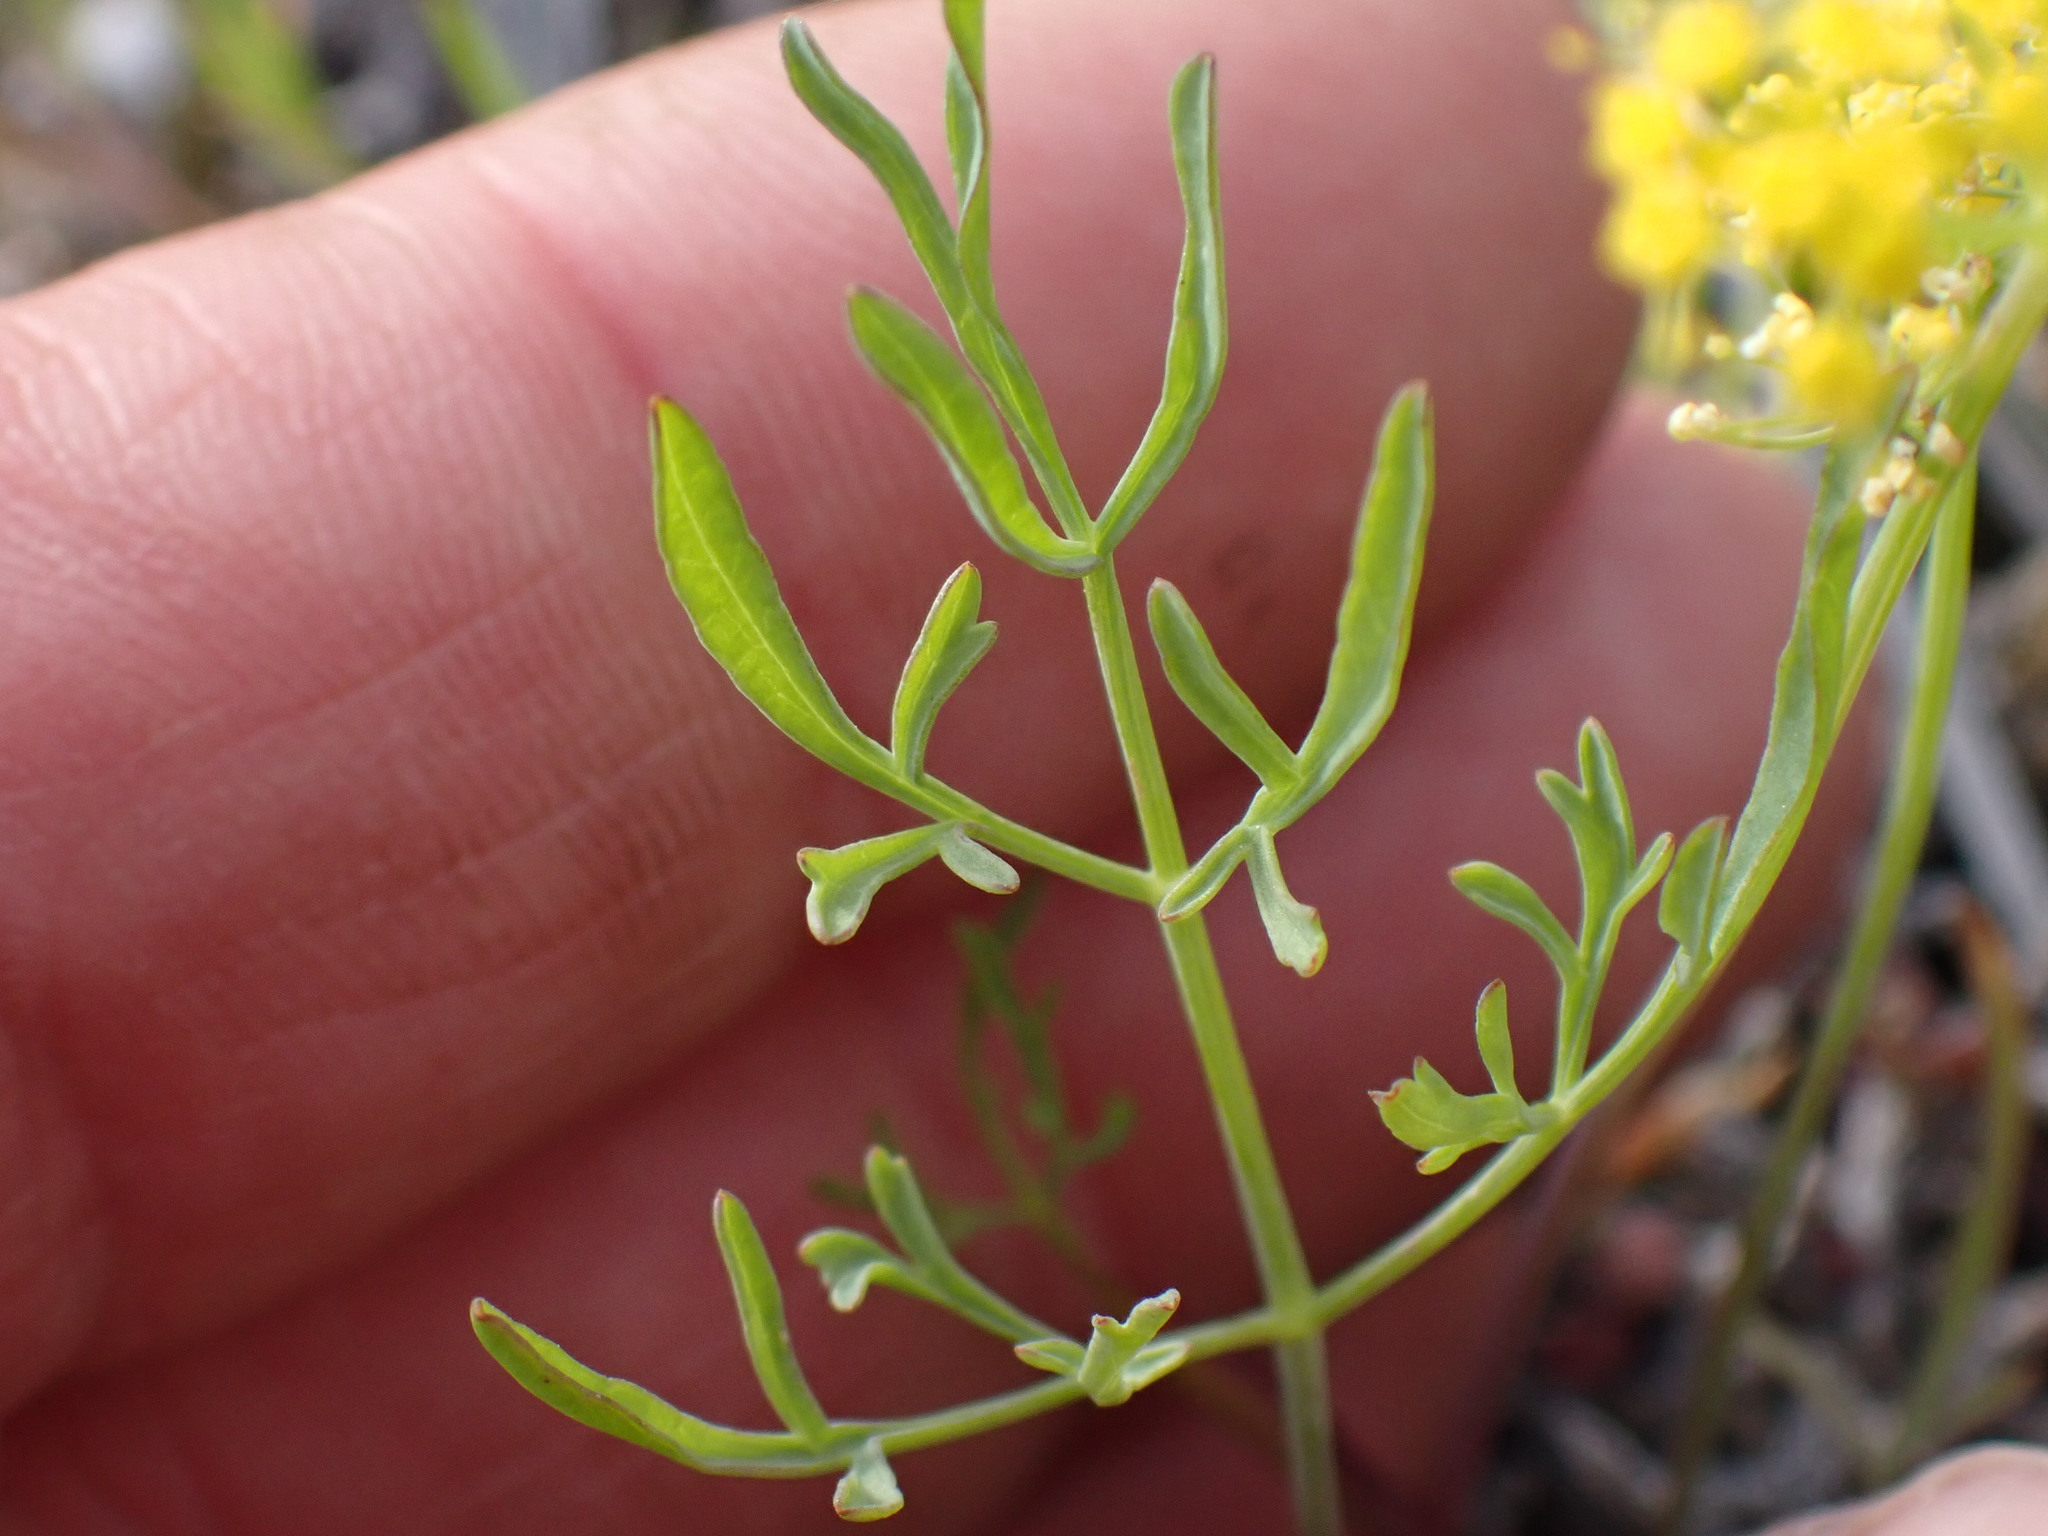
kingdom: Plantae
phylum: Tracheophyta
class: Magnoliopsida
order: Apiales
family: Apiaceae
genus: Lomatium
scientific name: Lomatium ambiguum
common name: Lacy lomatium
